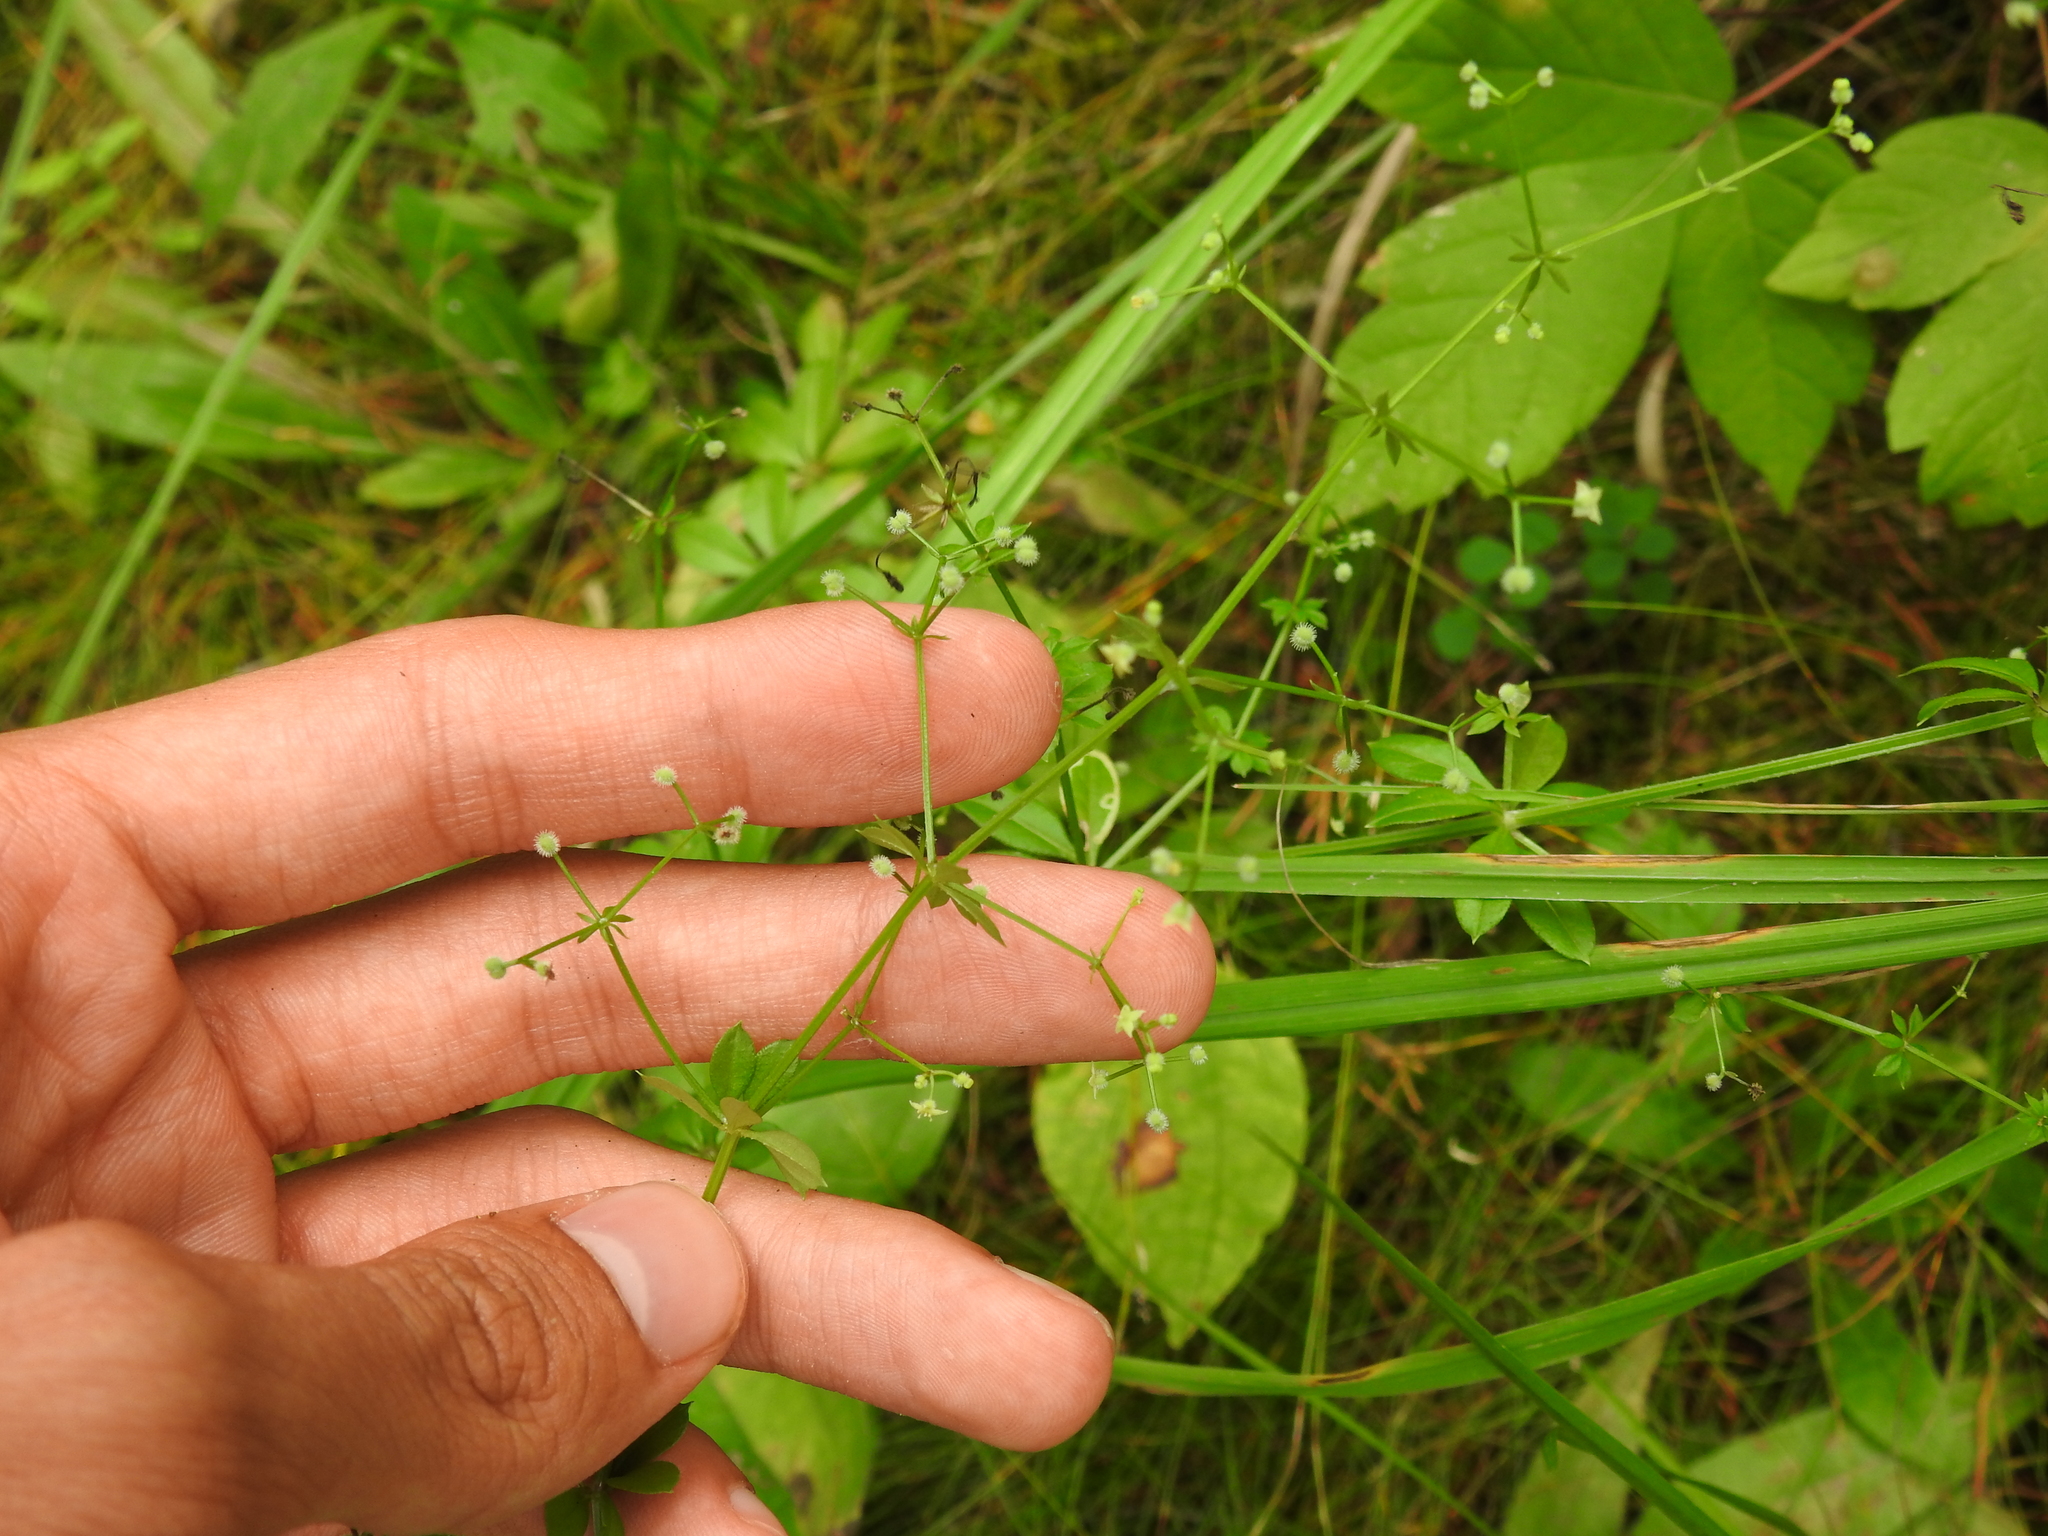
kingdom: Plantae
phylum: Tracheophyta
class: Magnoliopsida
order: Gentianales
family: Rubiaceae
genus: Galium
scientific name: Galium triflorum
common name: Fragrant bedstraw
